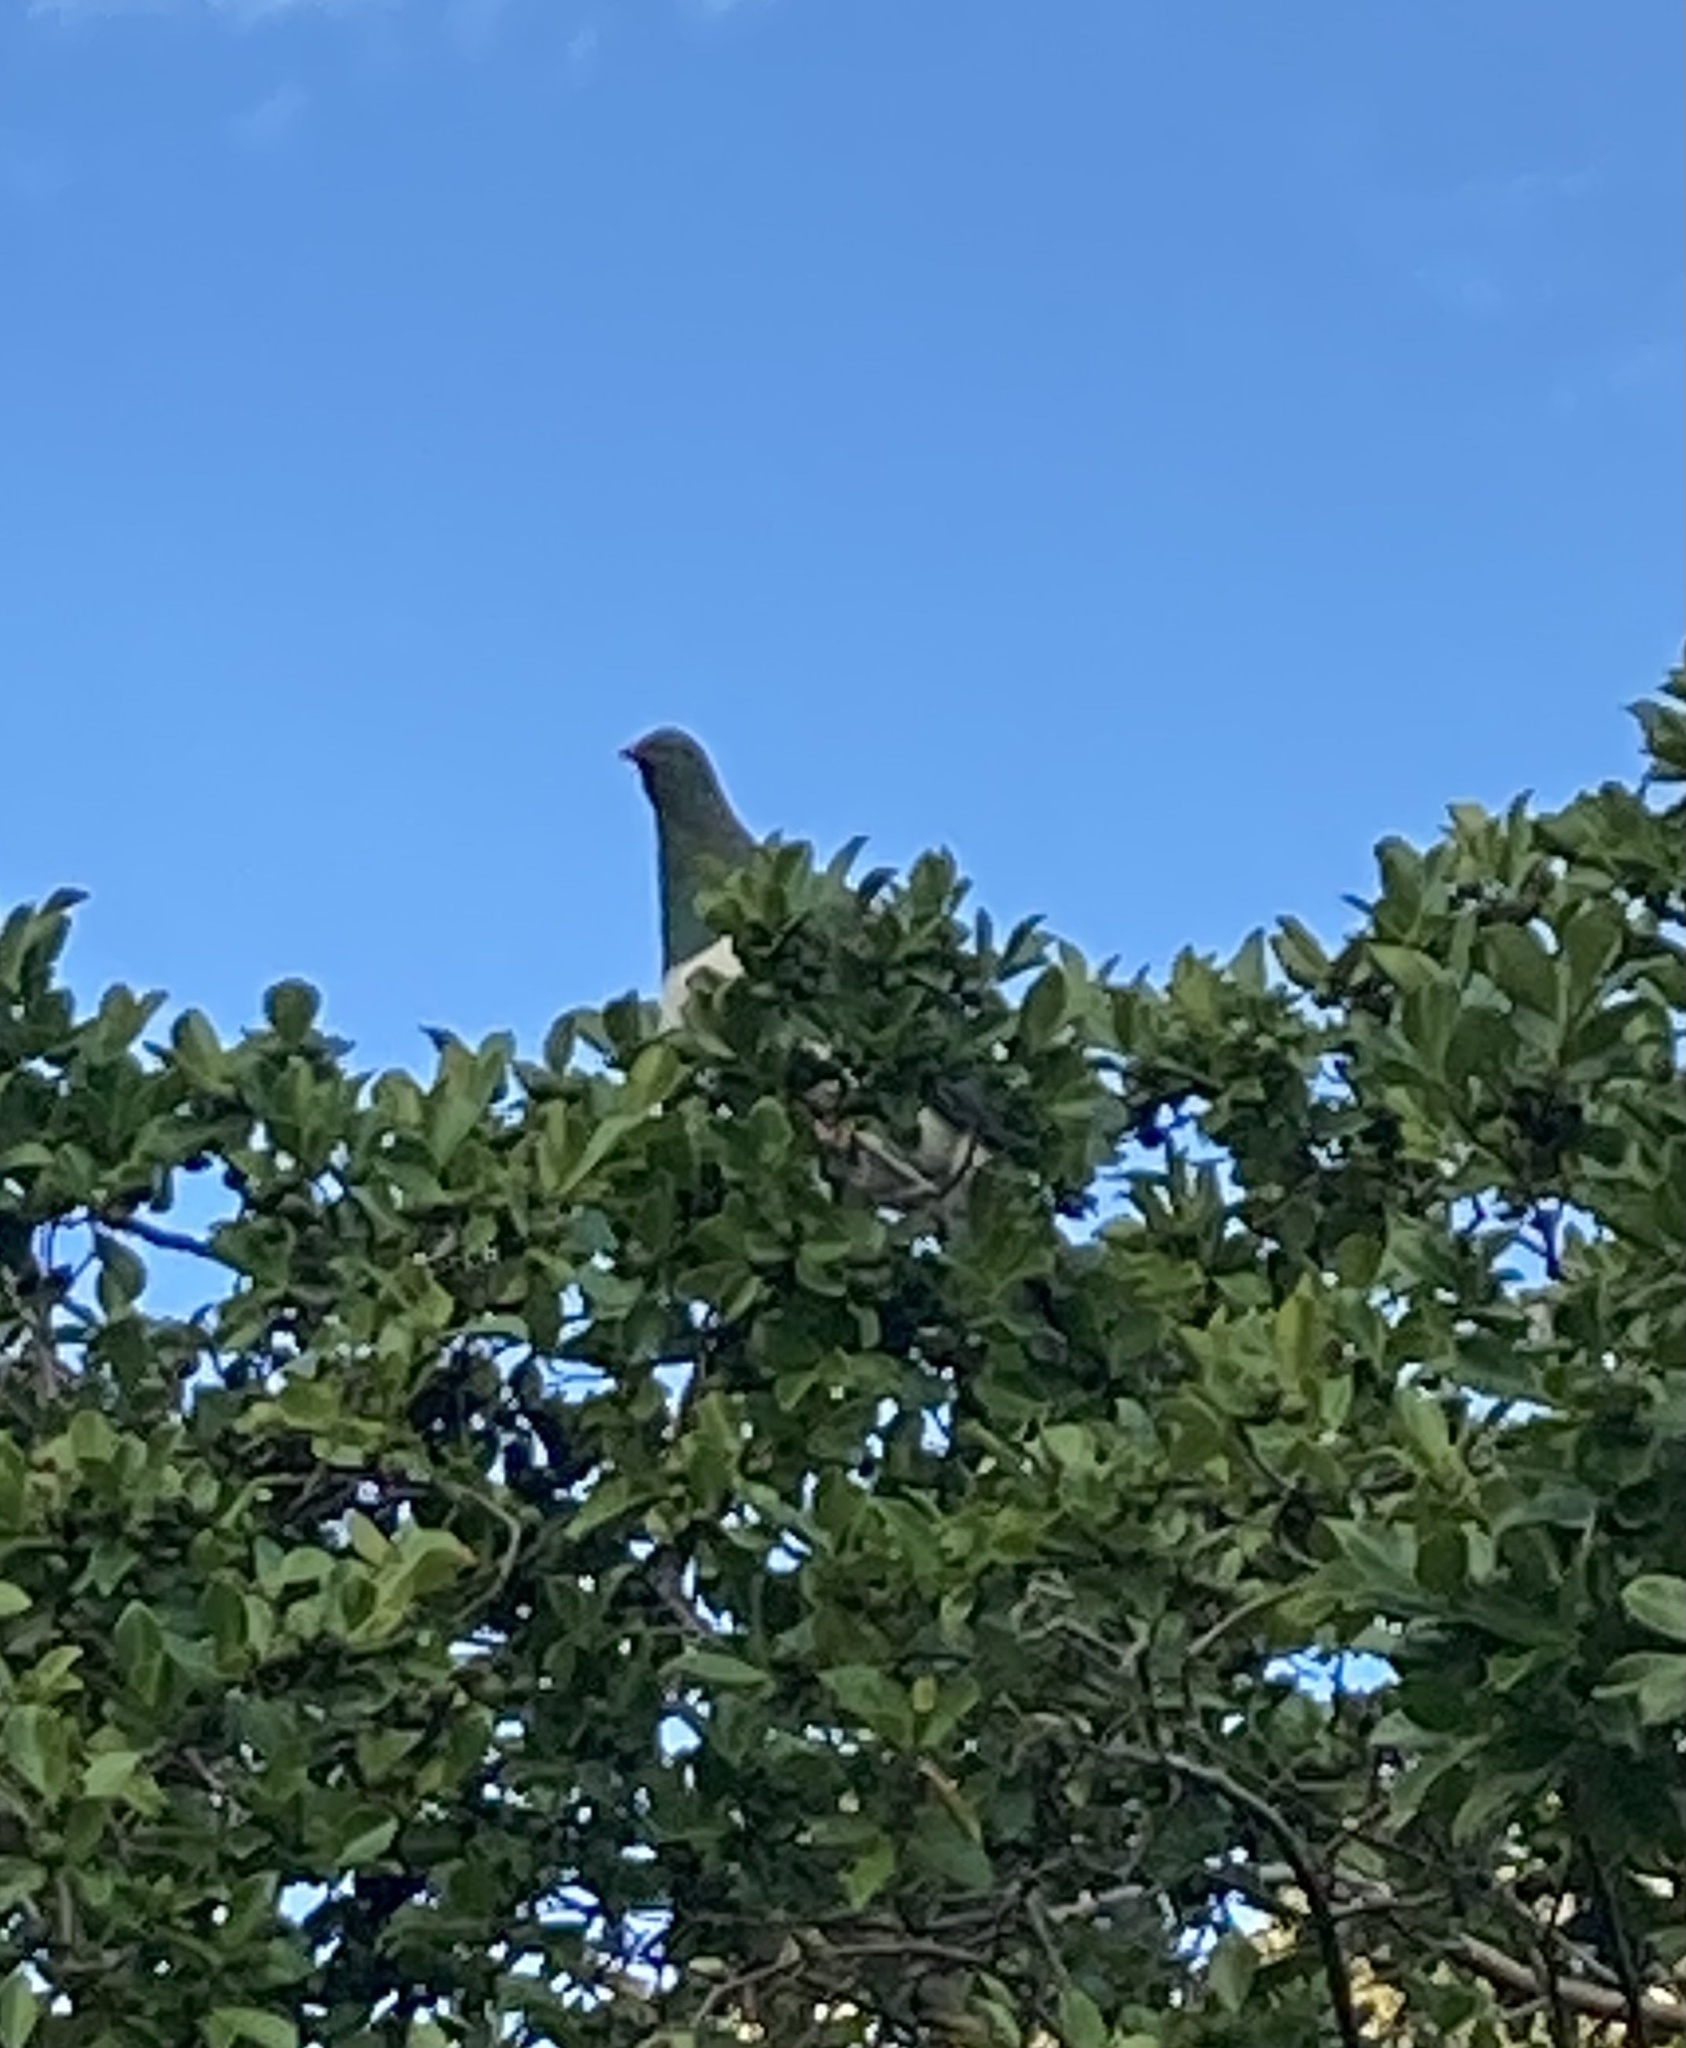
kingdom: Animalia
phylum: Chordata
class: Aves
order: Columbiformes
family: Columbidae
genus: Hemiphaga
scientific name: Hemiphaga novaeseelandiae
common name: New zealand pigeon
